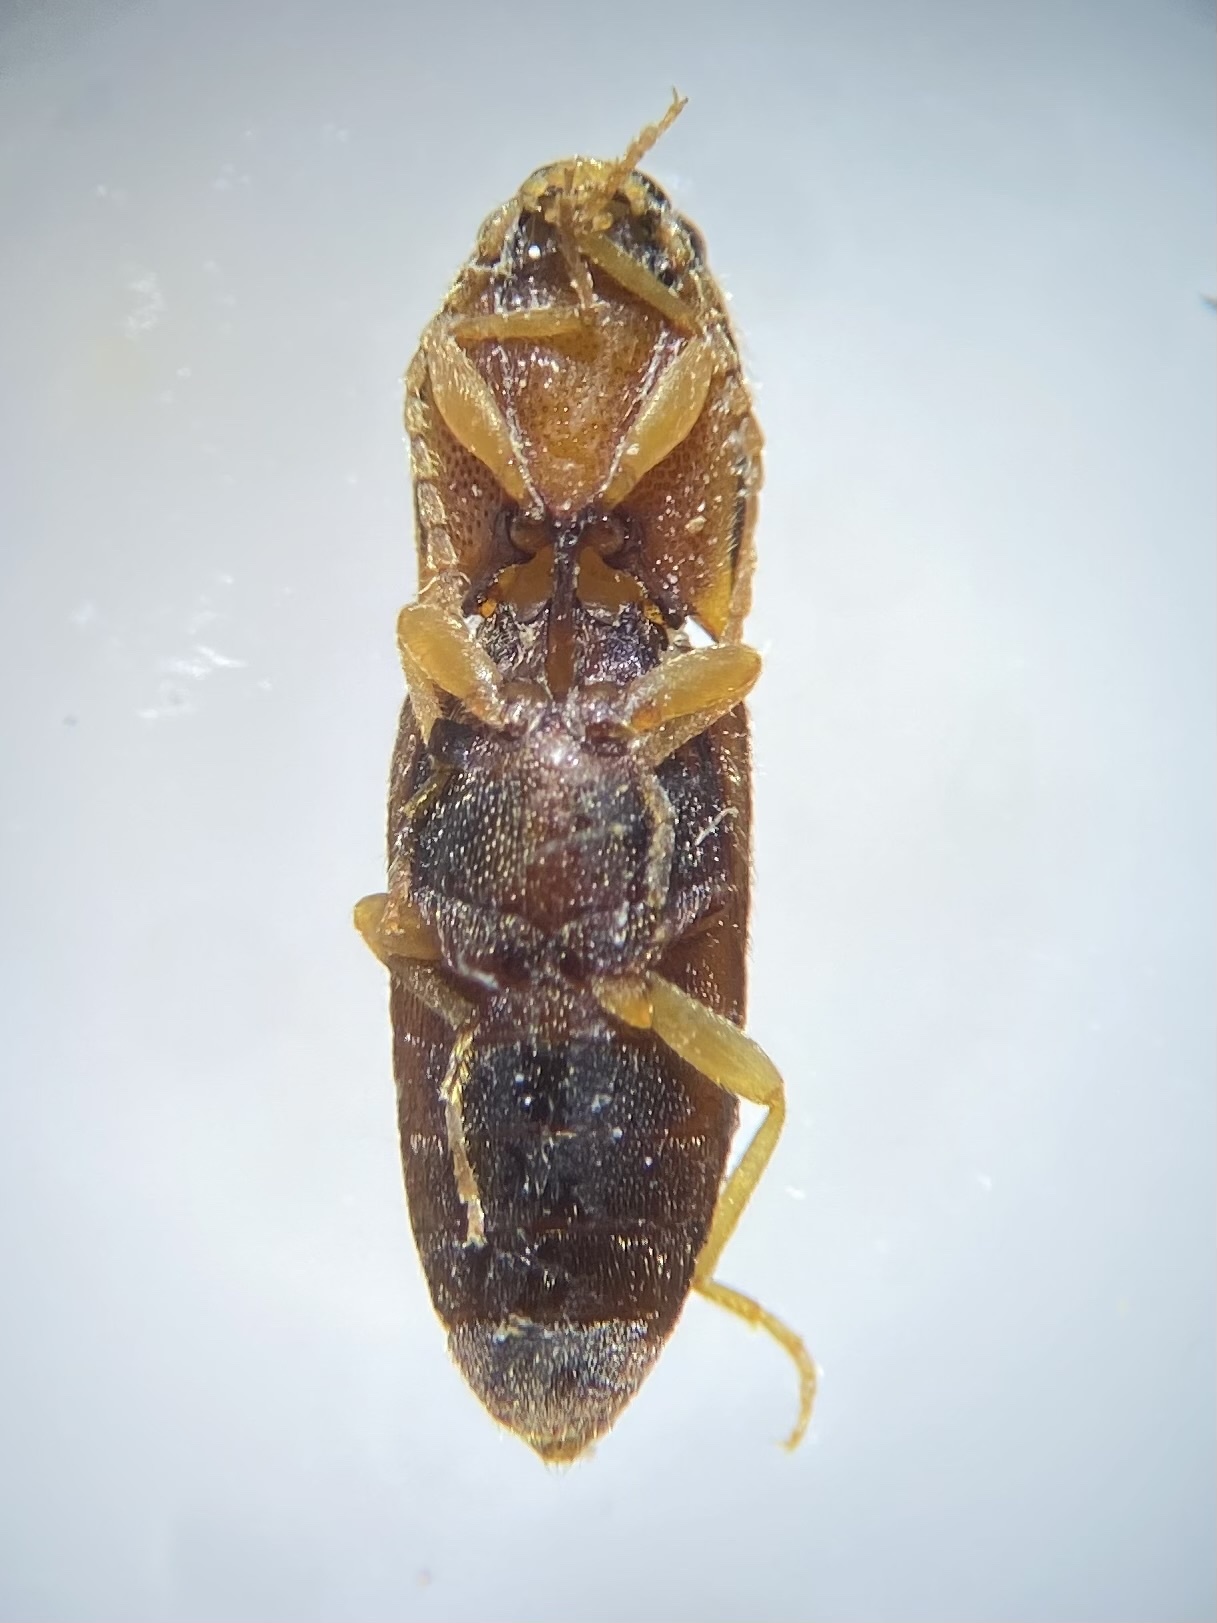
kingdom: Animalia
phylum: Arthropoda
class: Insecta
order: Coleoptera
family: Elateridae
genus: Aeolus
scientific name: Aeolus mellillus
